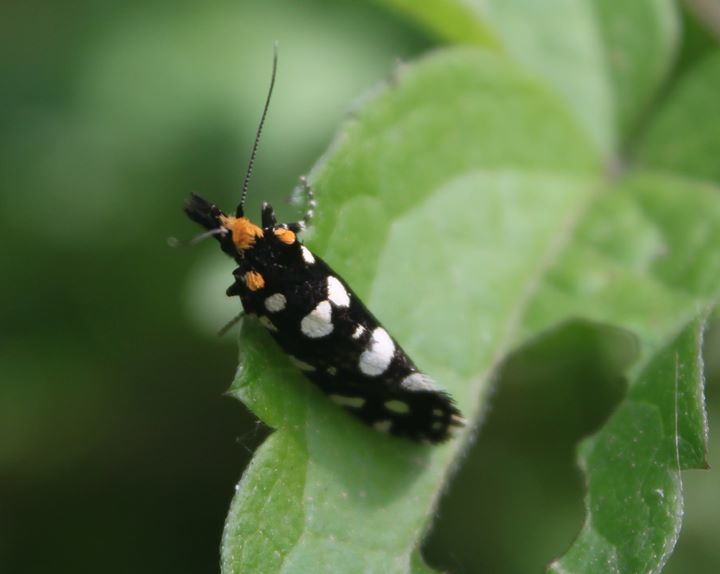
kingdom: Animalia
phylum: Arthropoda
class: Insecta
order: Lepidoptera
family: Tineidae
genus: Euplocamus
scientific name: Euplocamus anthracinalis
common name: Black clothes
